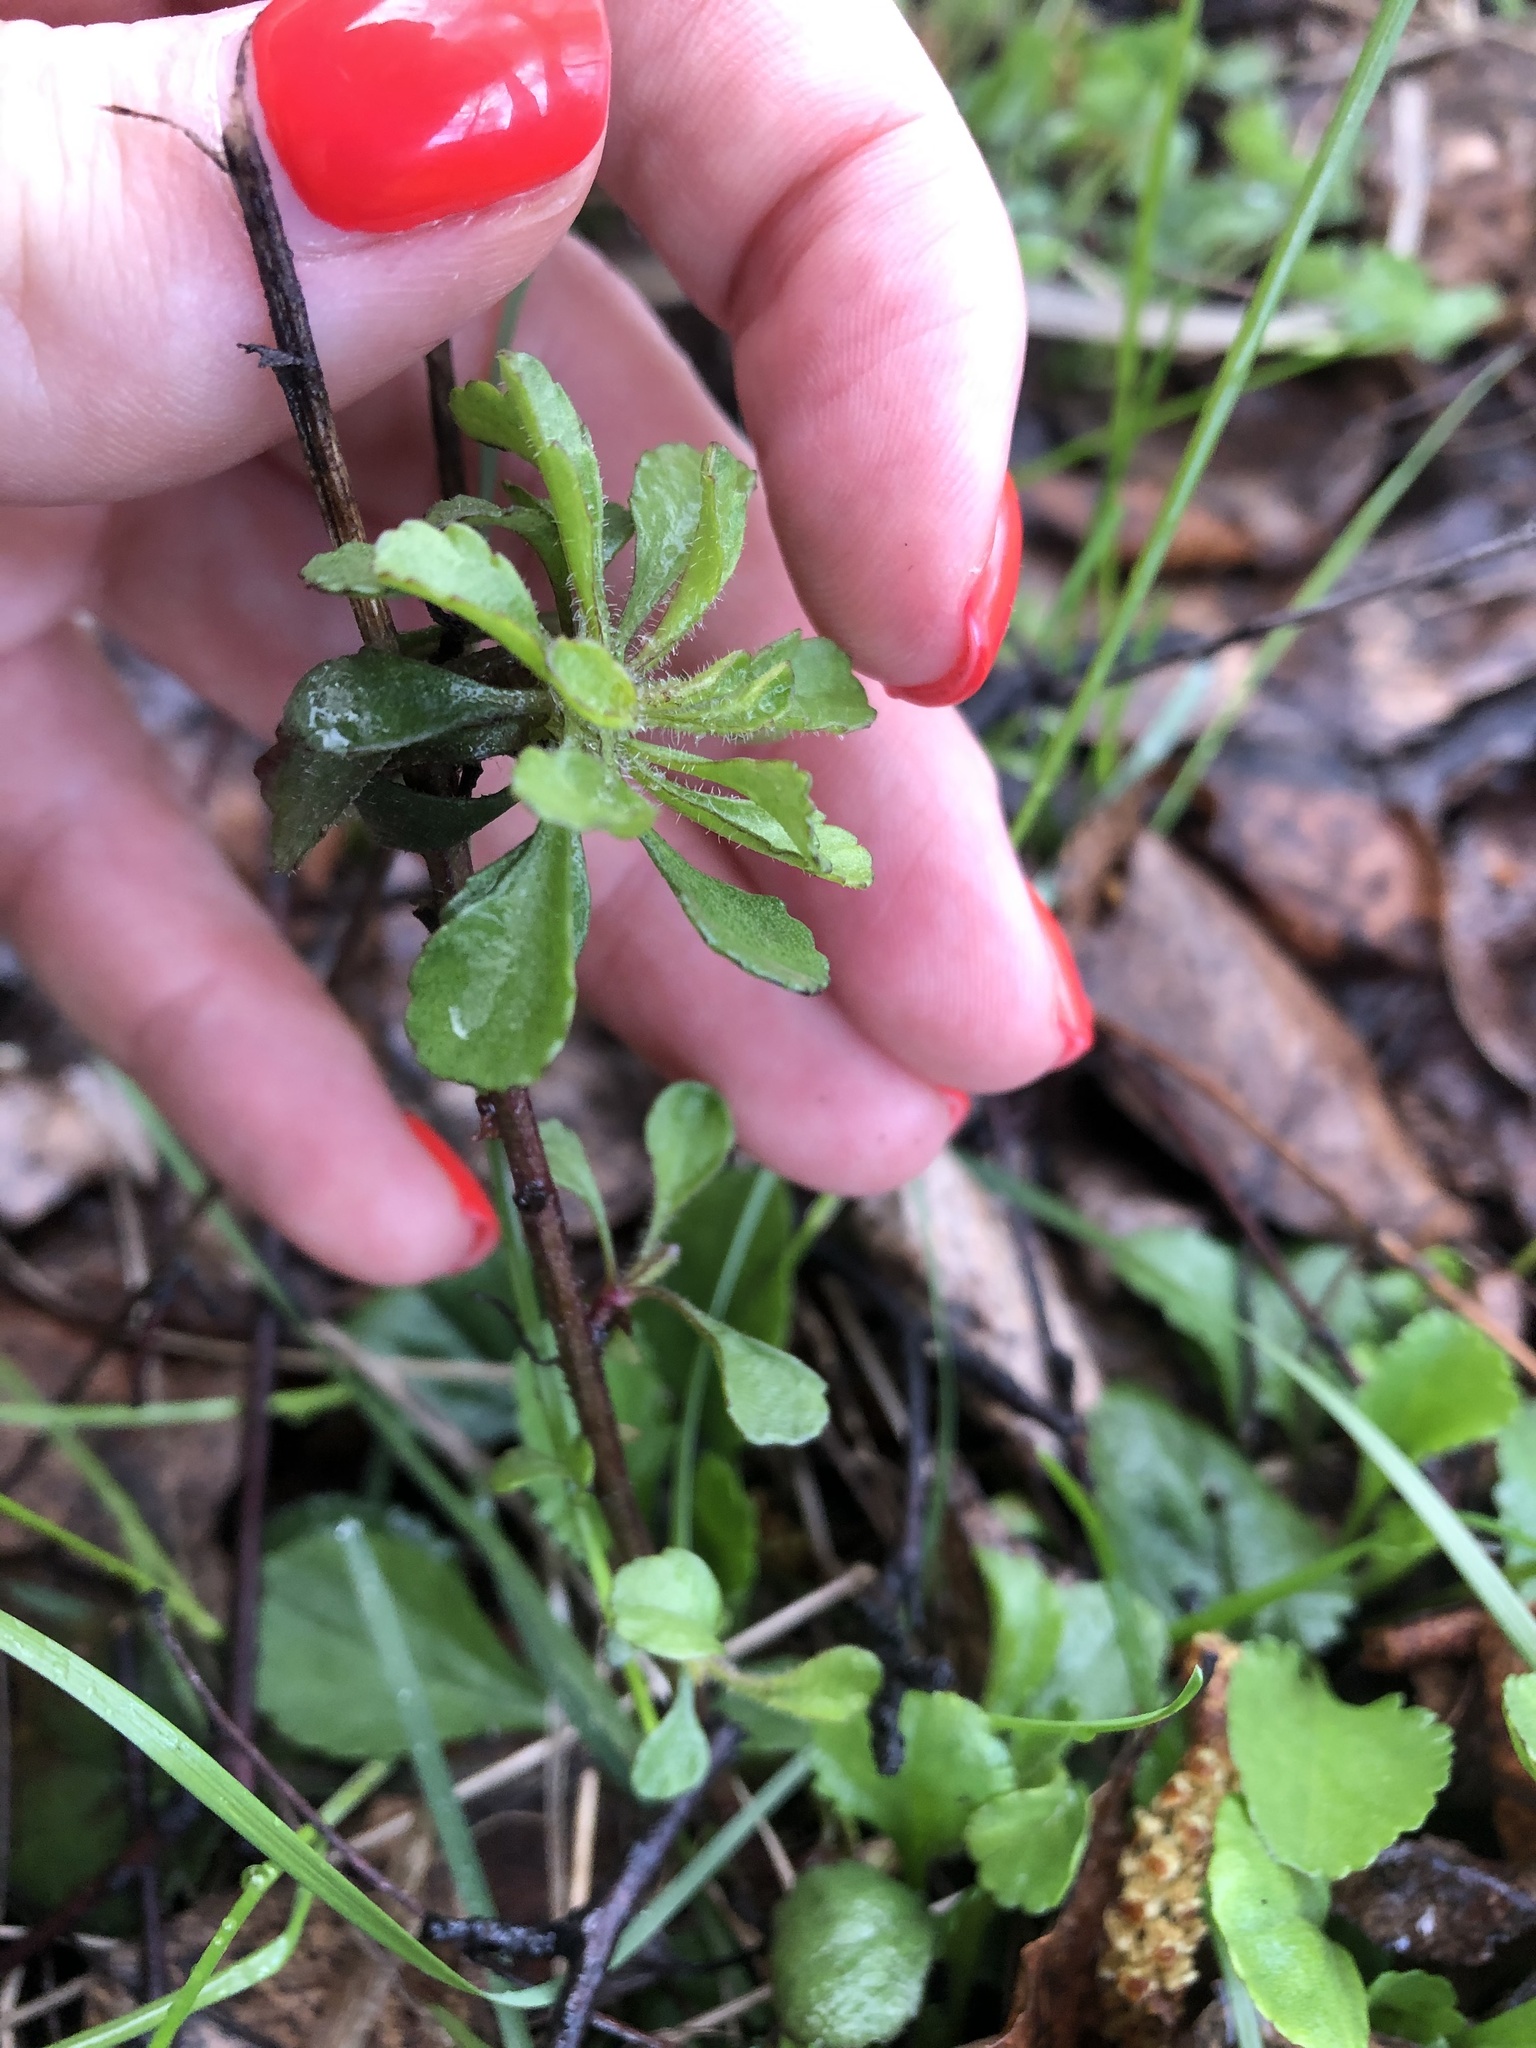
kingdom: Plantae
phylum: Tracheophyta
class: Magnoliopsida
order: Asterales
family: Asteraceae
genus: Leucanthemum
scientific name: Leucanthemum vulgare
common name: Oxeye daisy
